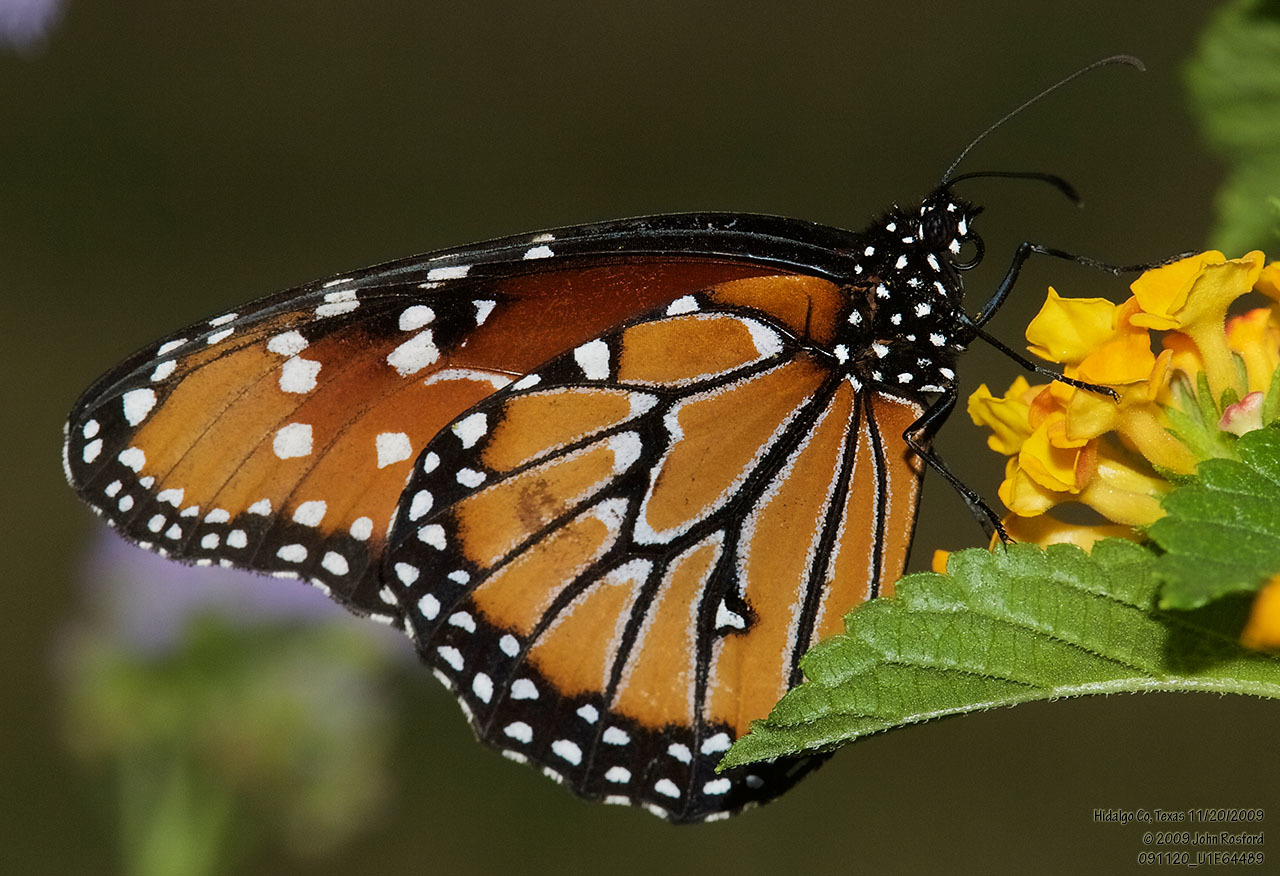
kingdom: Animalia
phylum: Arthropoda
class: Insecta
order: Lepidoptera
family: Nymphalidae
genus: Danaus
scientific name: Danaus gilippus
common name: Queen
